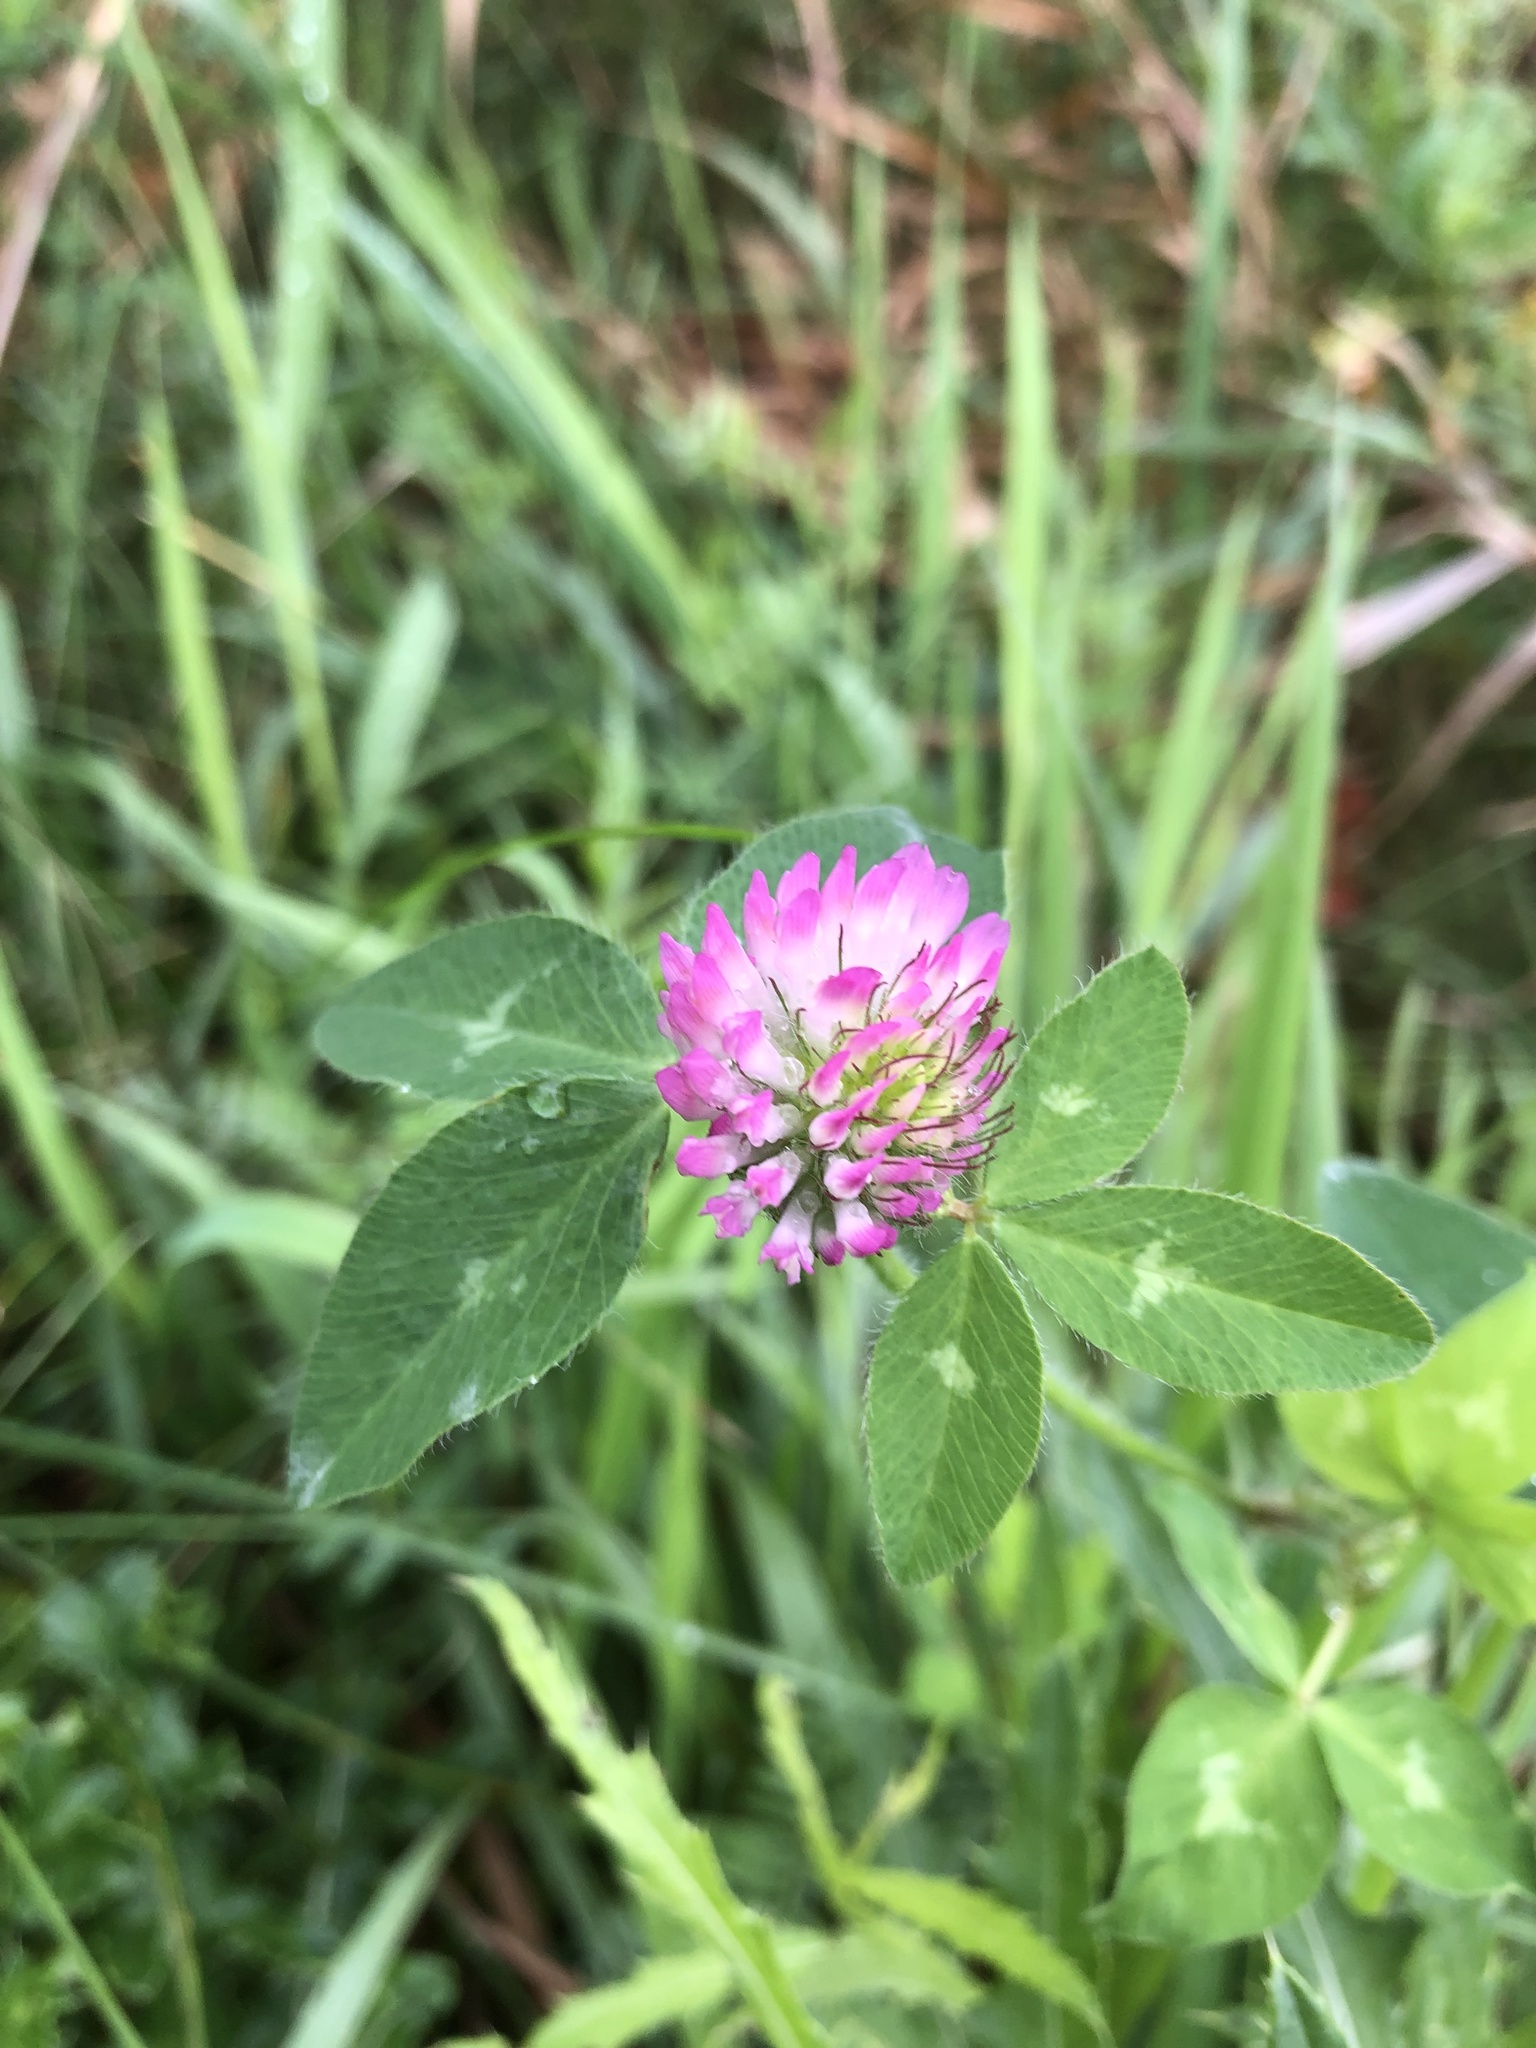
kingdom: Plantae
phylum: Tracheophyta
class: Magnoliopsida
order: Fabales
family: Fabaceae
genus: Trifolium
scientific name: Trifolium pratense
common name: Red clover
